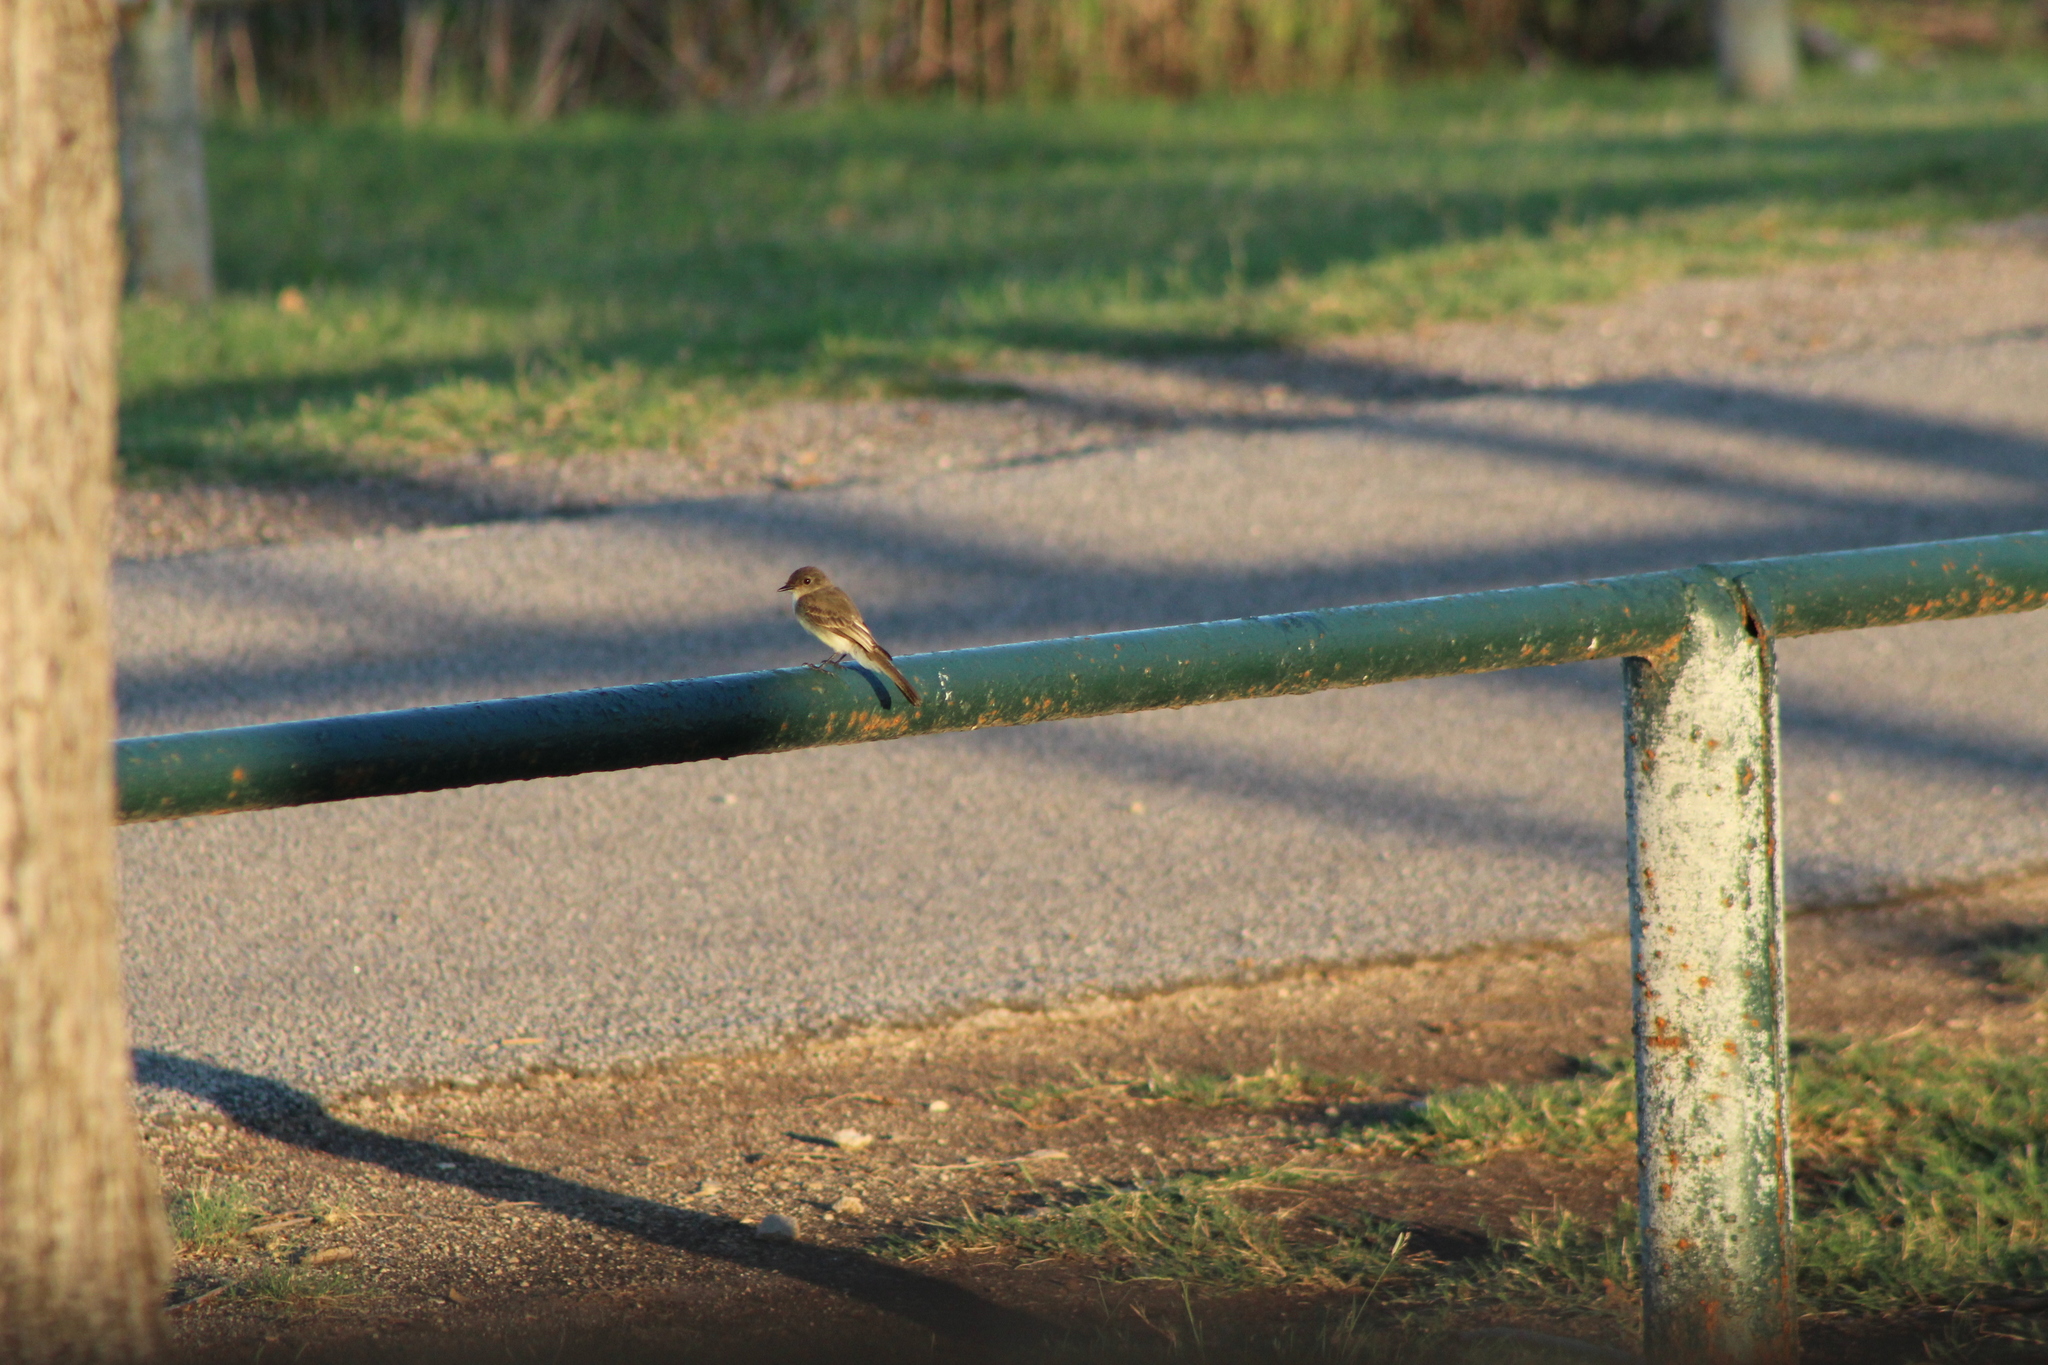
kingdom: Animalia
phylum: Chordata
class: Aves
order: Passeriformes
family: Tyrannidae
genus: Sayornis
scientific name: Sayornis phoebe
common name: Eastern phoebe
